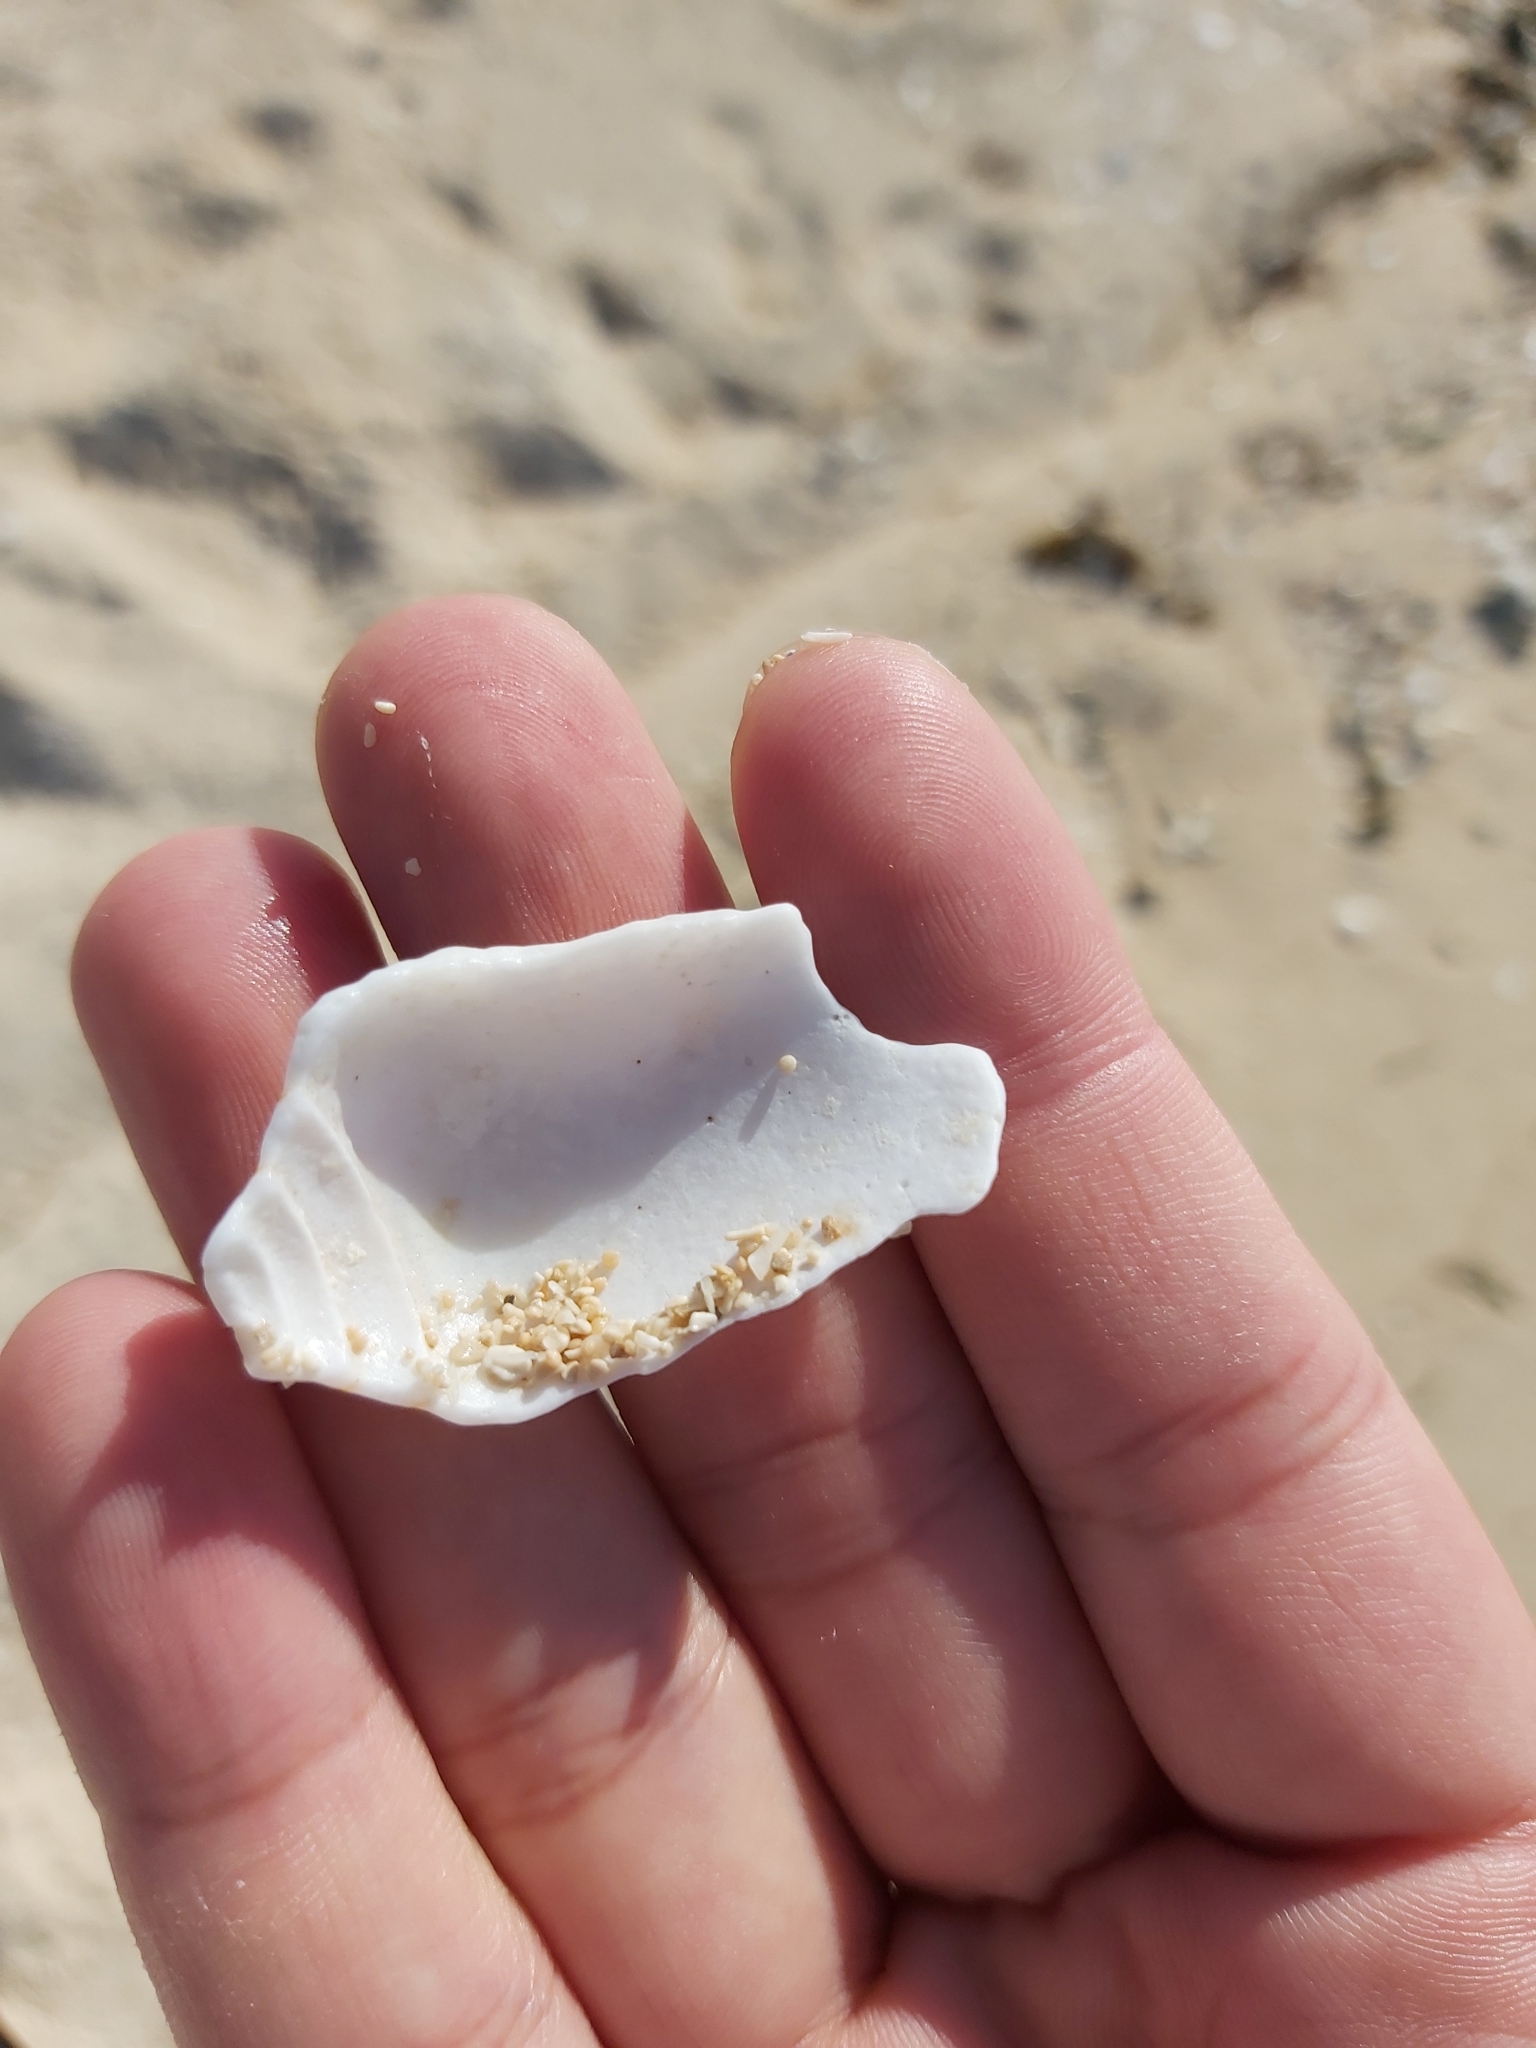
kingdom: Animalia
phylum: Mollusca
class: Gastropoda
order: Neogastropoda
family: Conidae
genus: Conus
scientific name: Conus textile
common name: Cloth-of-gold cone
